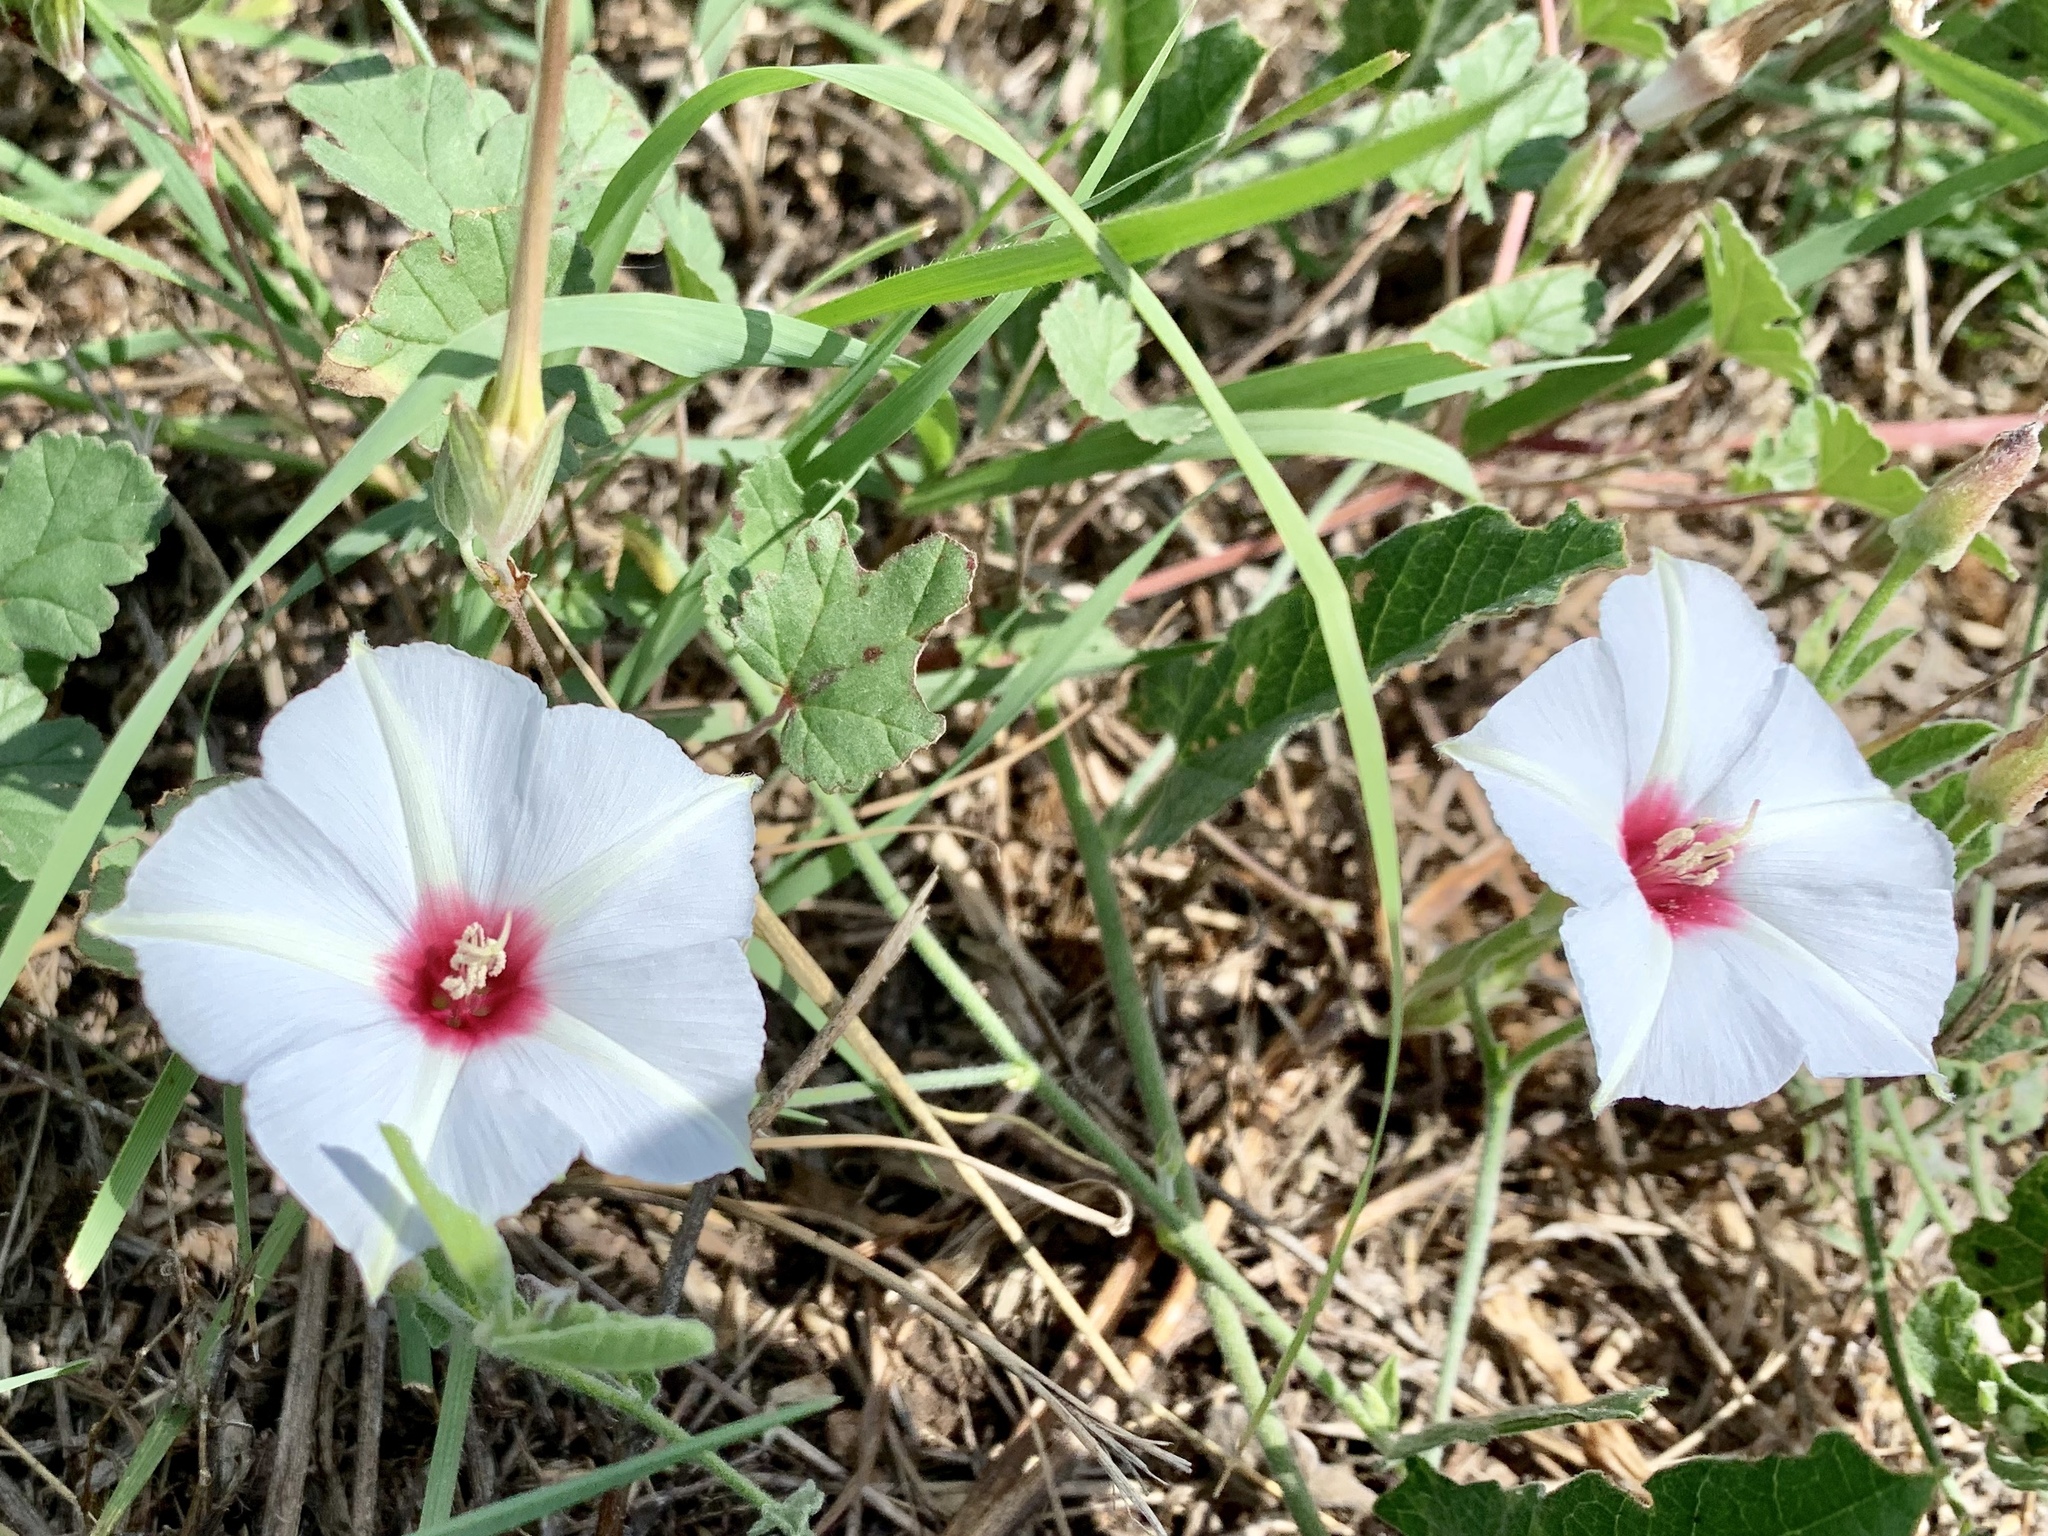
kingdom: Plantae
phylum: Tracheophyta
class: Magnoliopsida
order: Solanales
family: Convolvulaceae
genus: Convolvulus
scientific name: Convolvulus equitans
